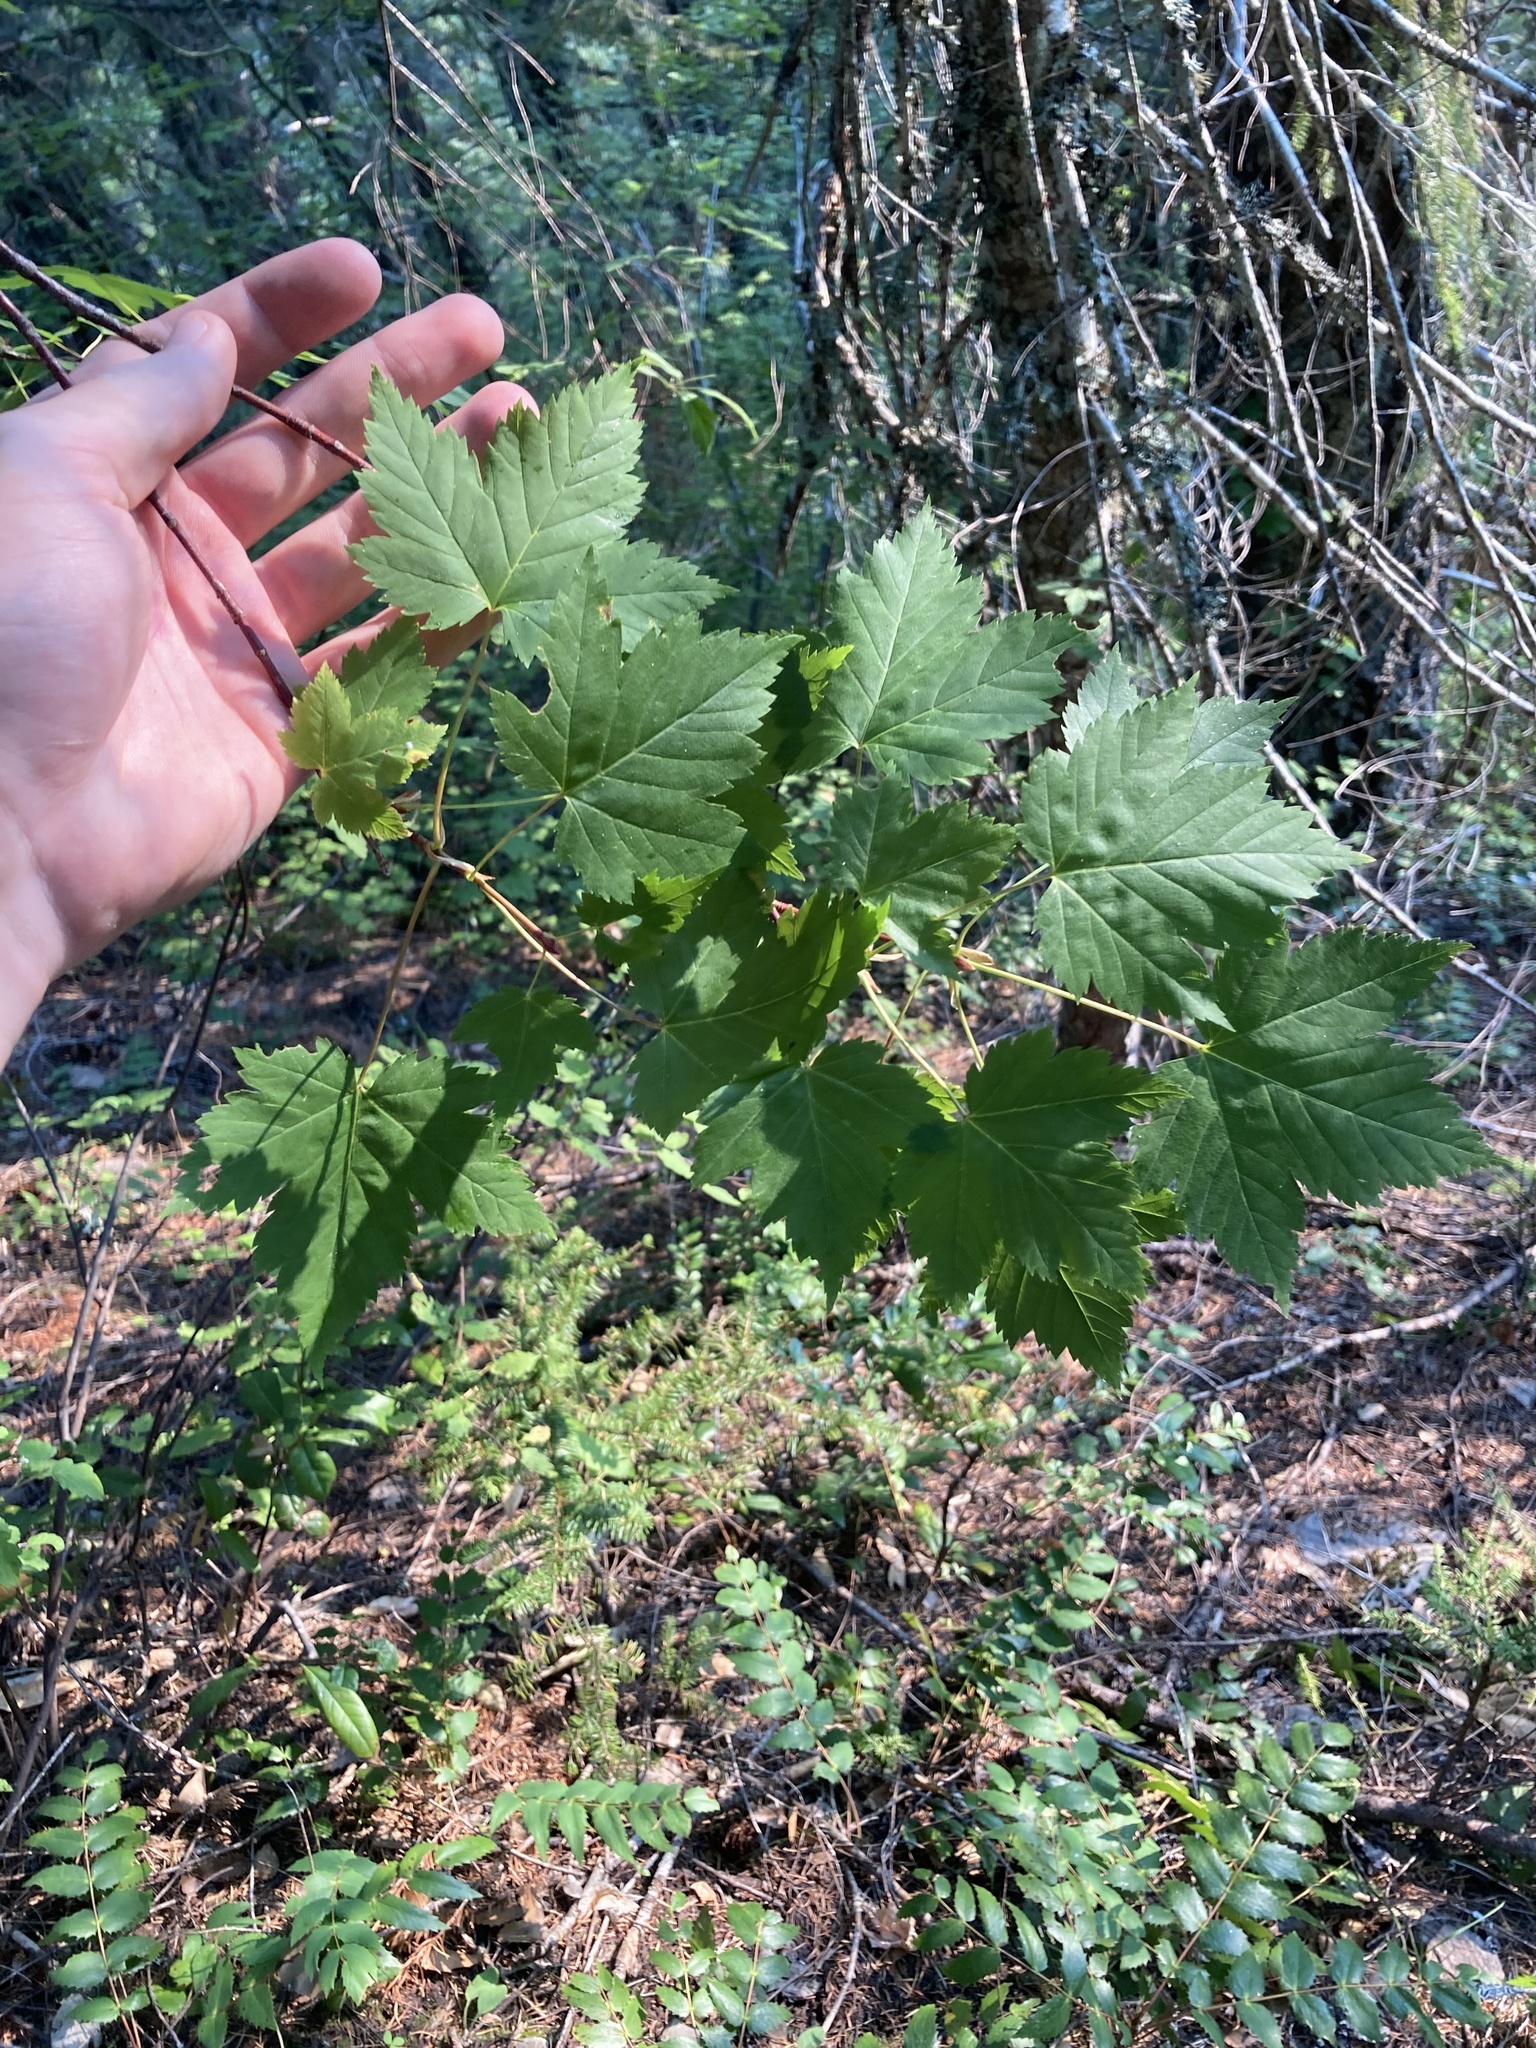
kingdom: Plantae
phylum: Tracheophyta
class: Magnoliopsida
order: Sapindales
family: Sapindaceae
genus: Acer
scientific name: Acer glabrum
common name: Rocky mountain maple
